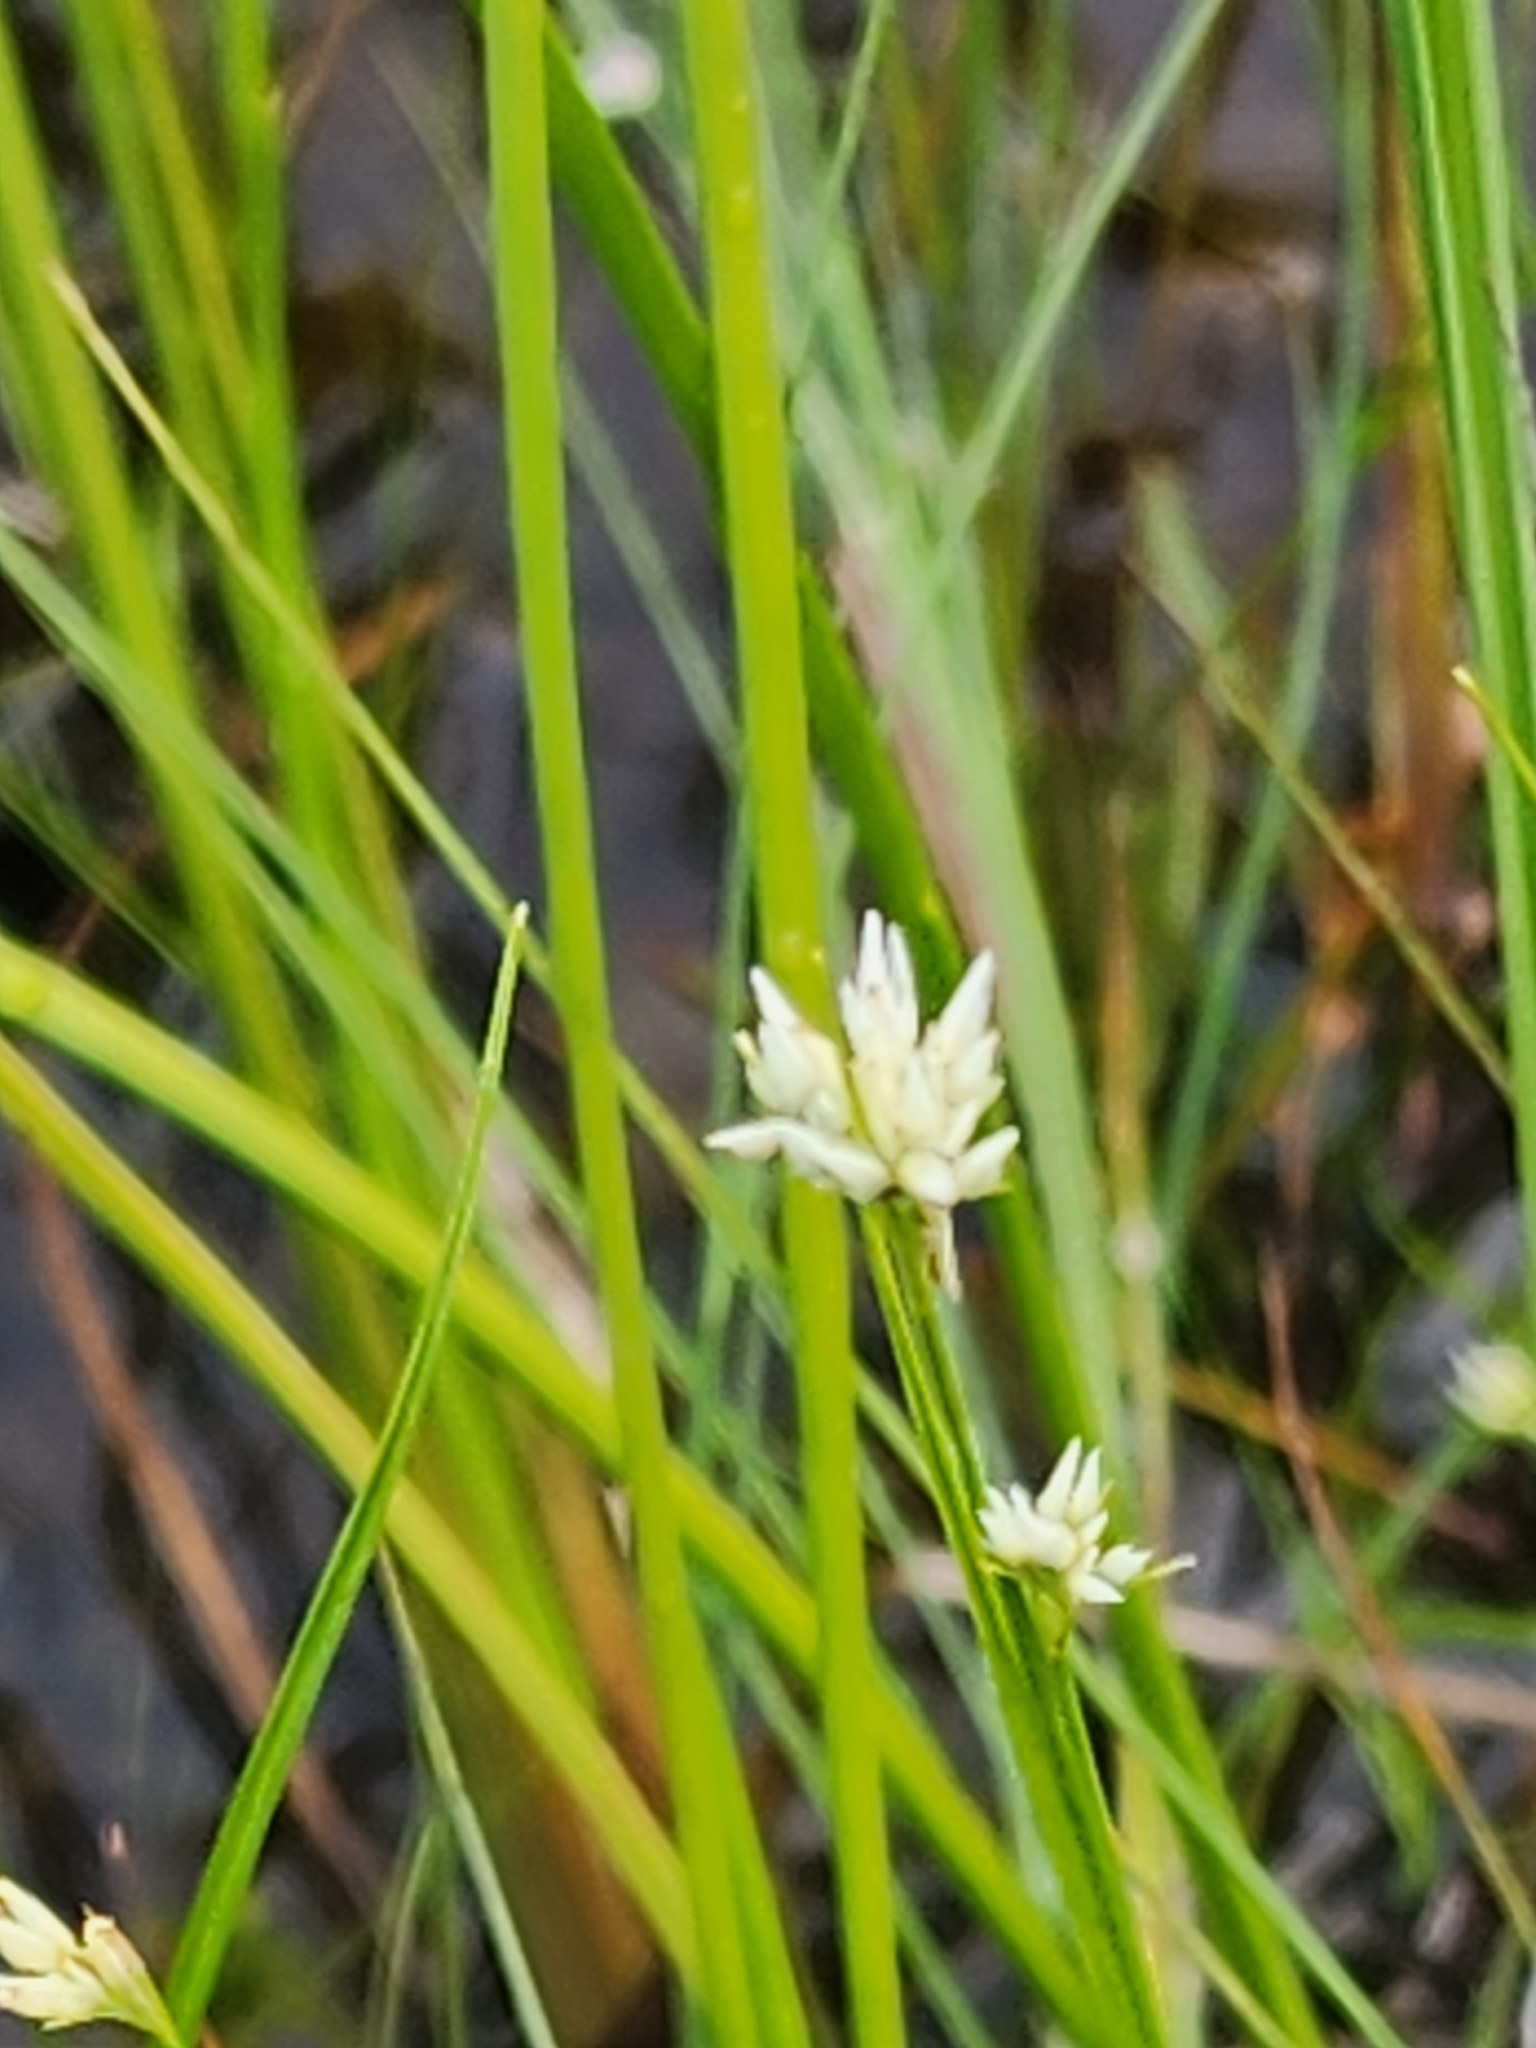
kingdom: Plantae
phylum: Tracheophyta
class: Liliopsida
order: Poales
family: Cyperaceae
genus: Rhynchospora
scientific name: Rhynchospora alba
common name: White beak-sedge
